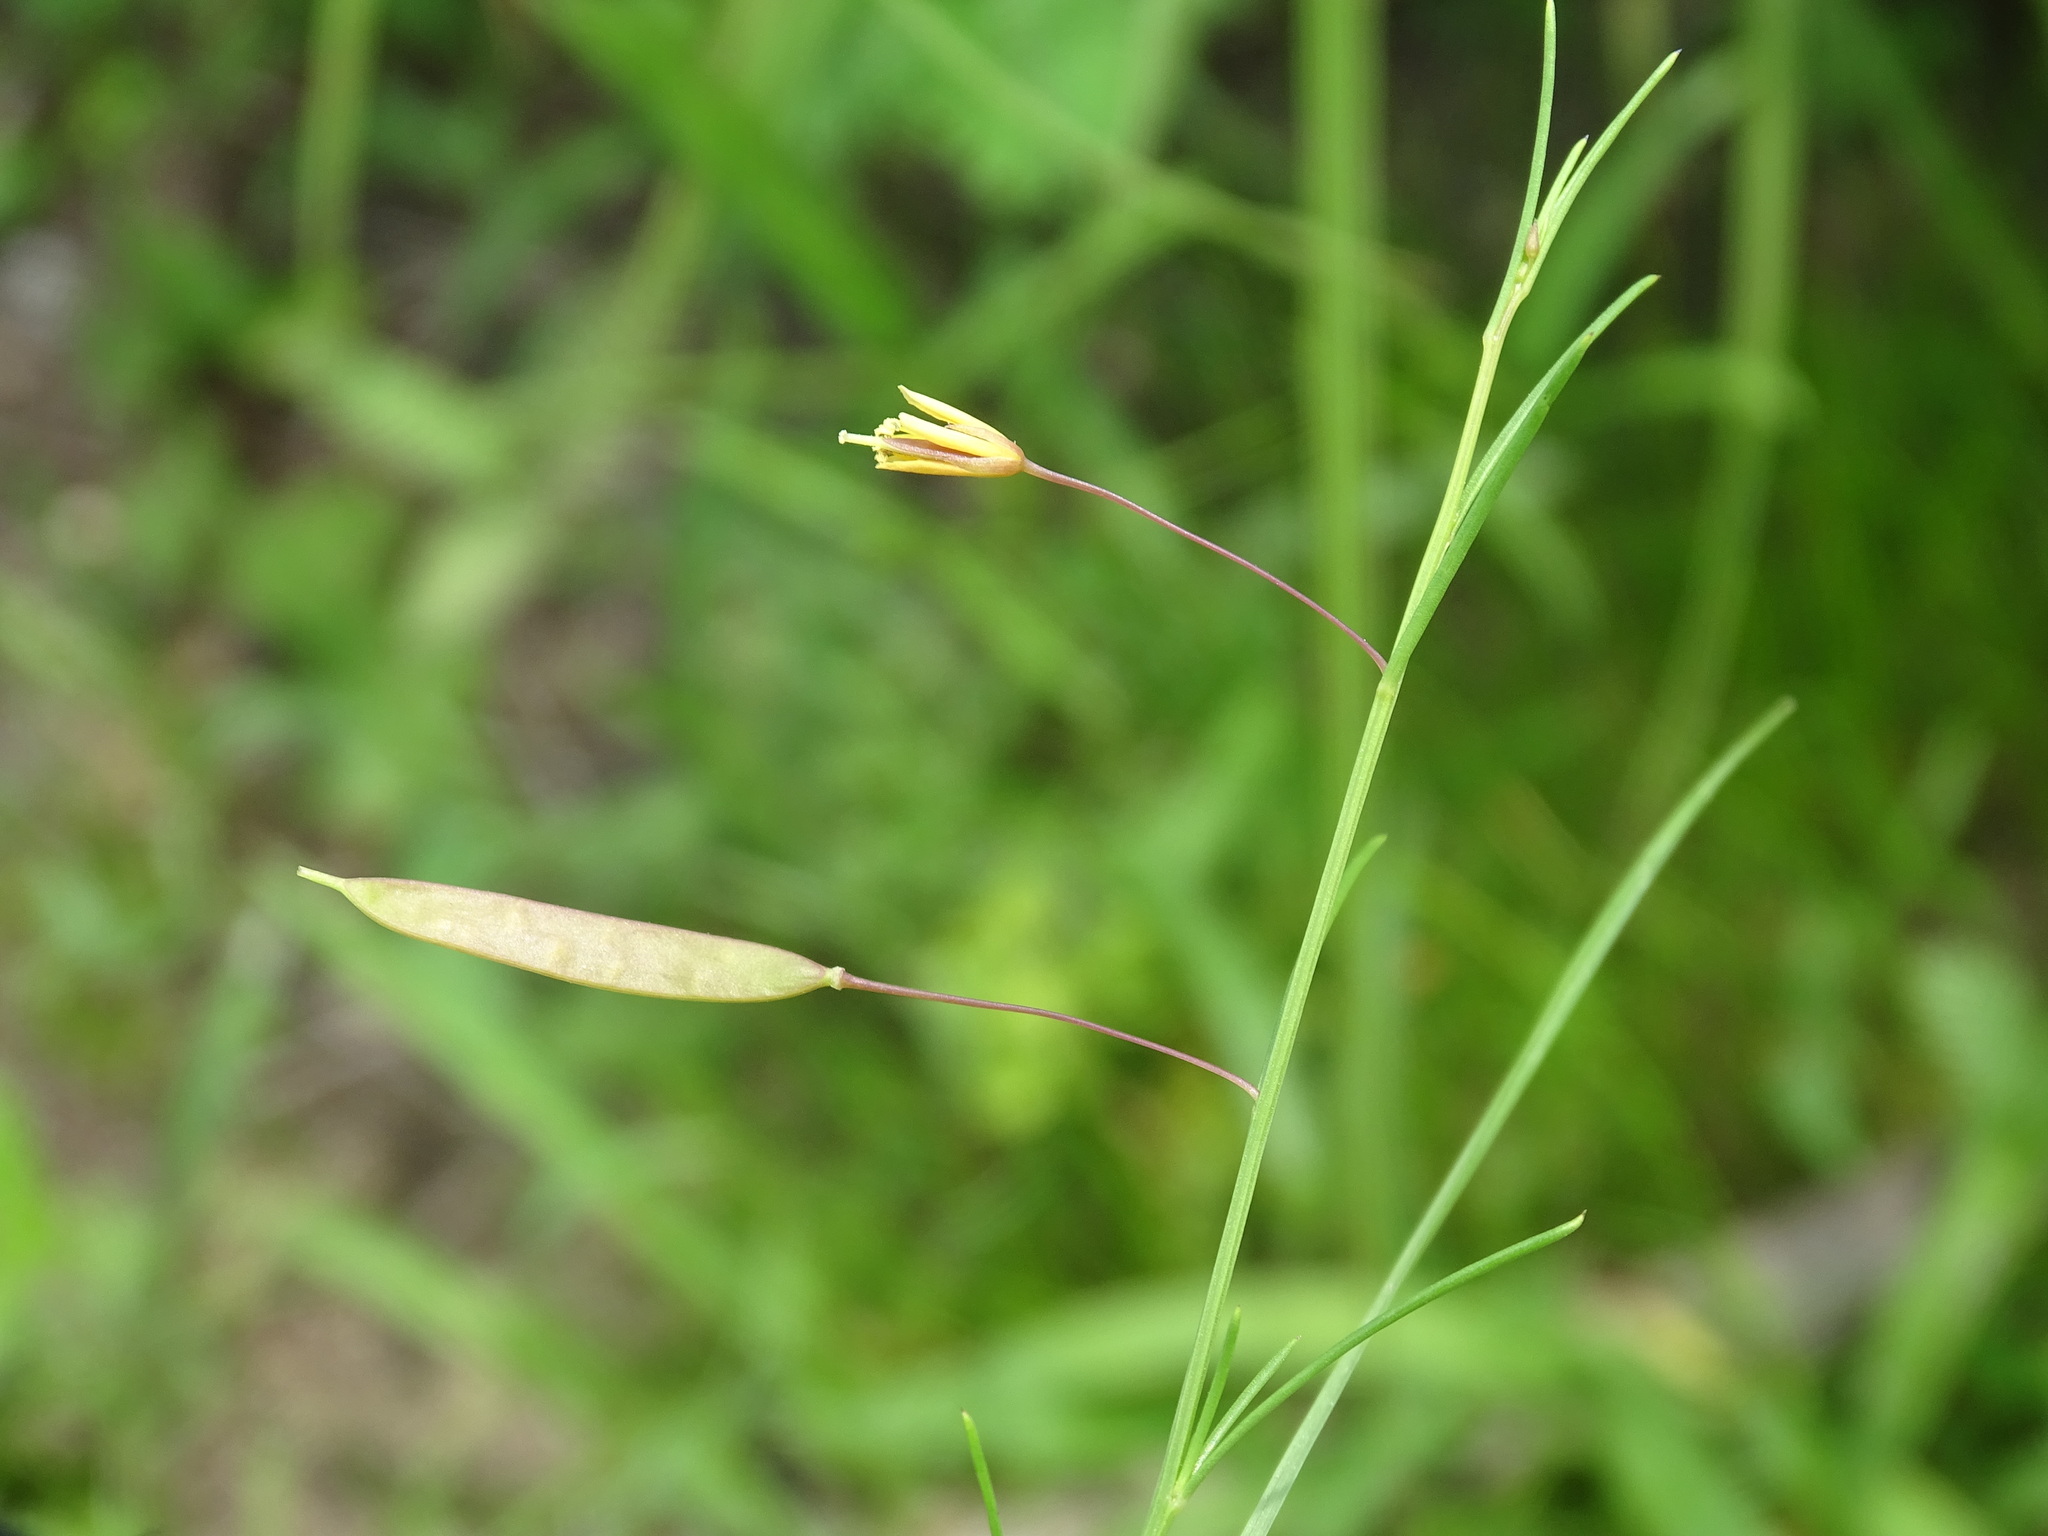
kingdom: Plantae
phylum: Tracheophyta
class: Magnoliopsida
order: Brassicales
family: Cleomaceae
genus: Physostemon
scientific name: Physostemon guianensis
